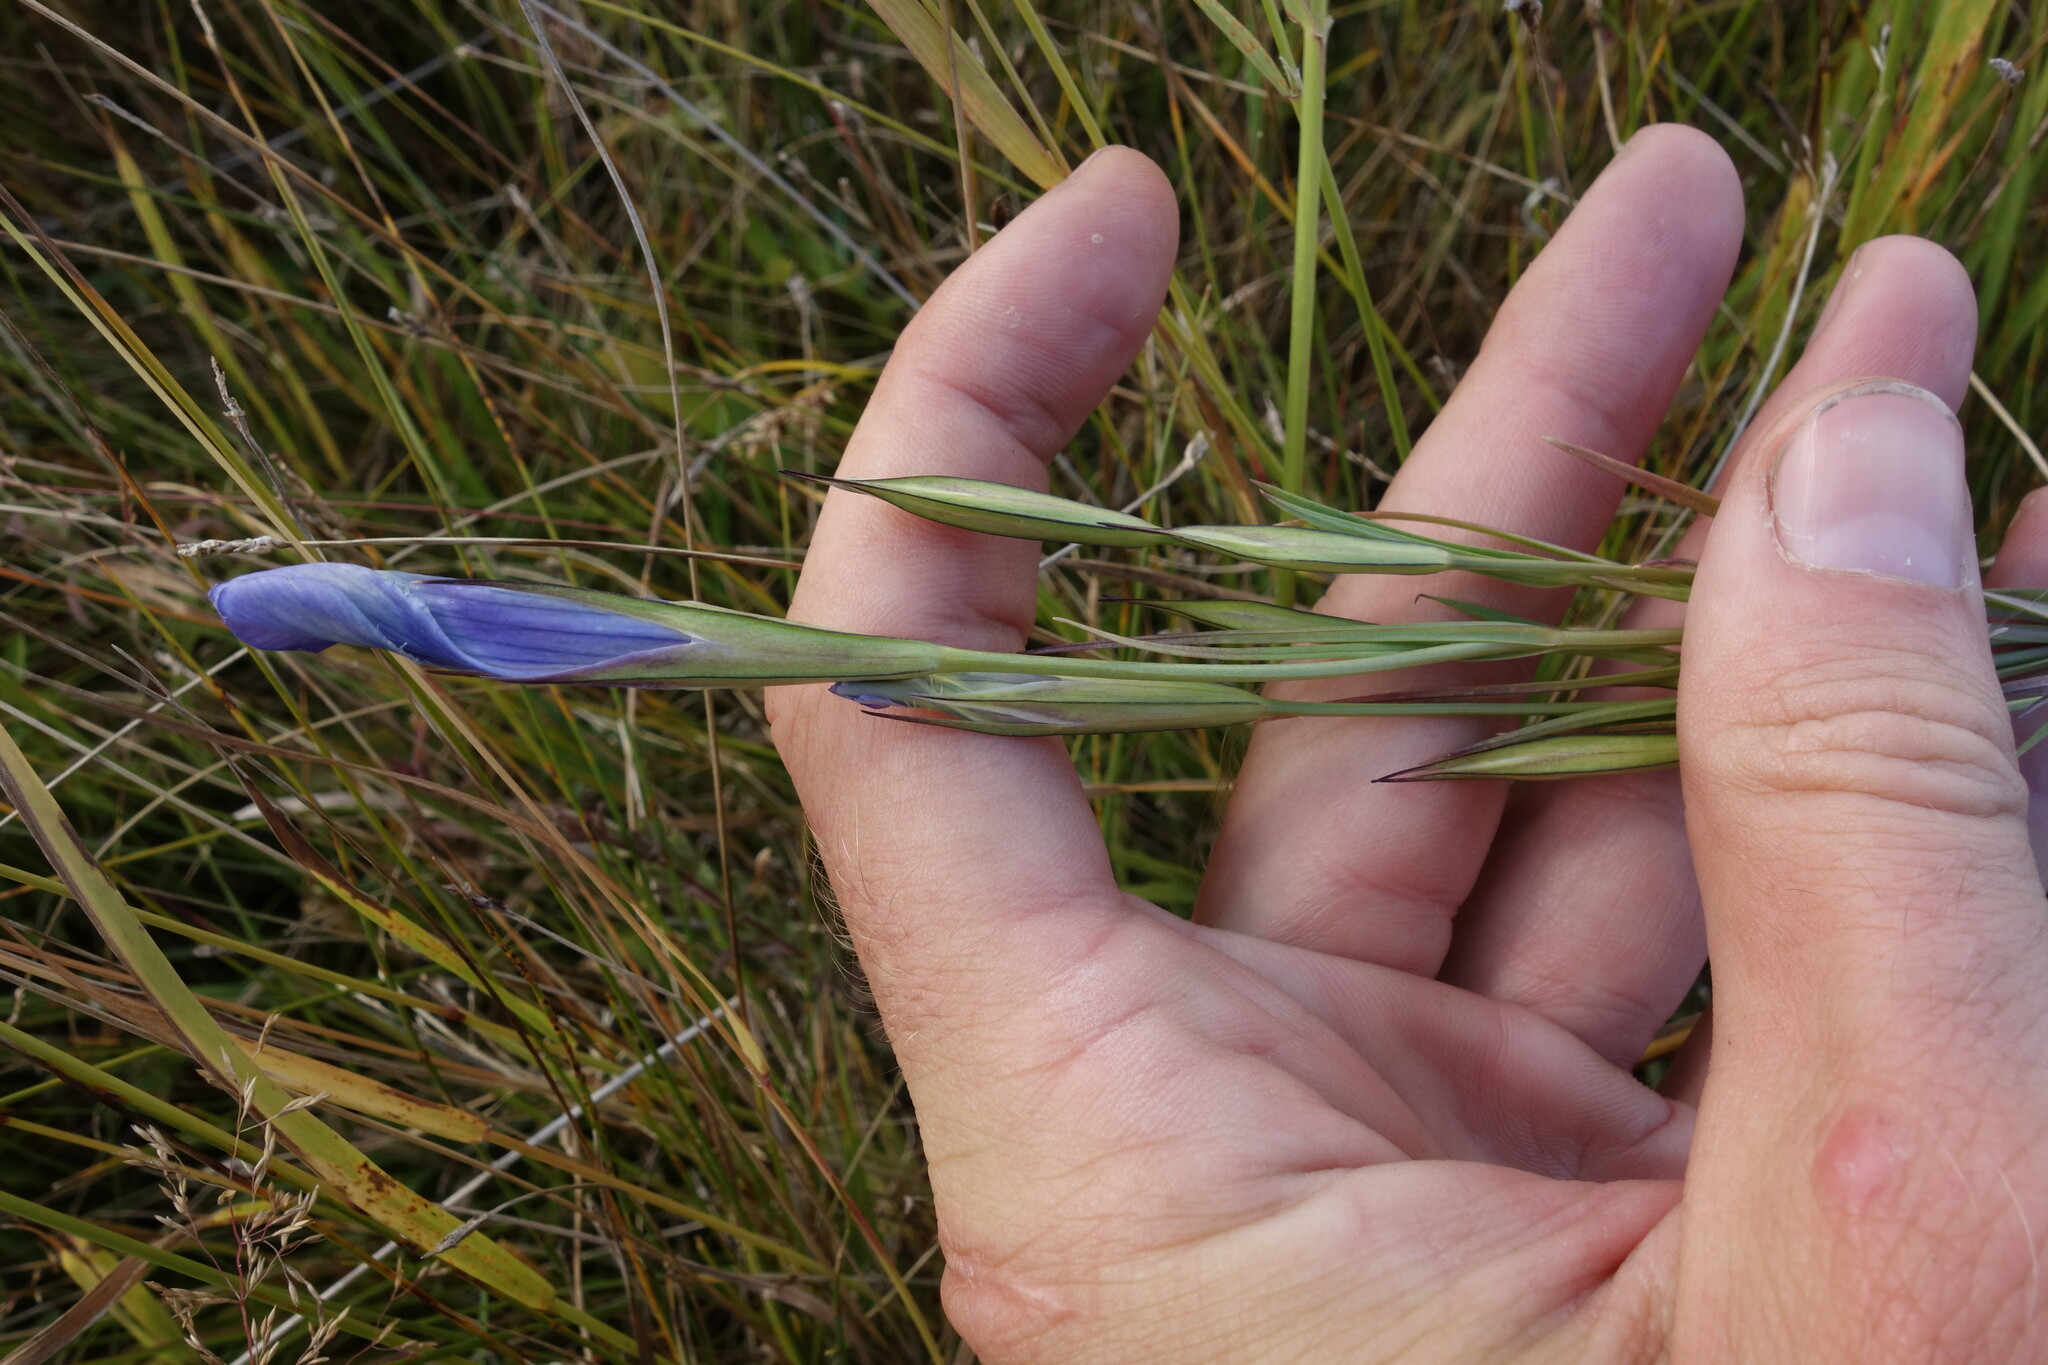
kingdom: Plantae
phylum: Tracheophyta
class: Magnoliopsida
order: Gentianales
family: Gentianaceae
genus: Gentianopsis
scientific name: Gentianopsis barbata
